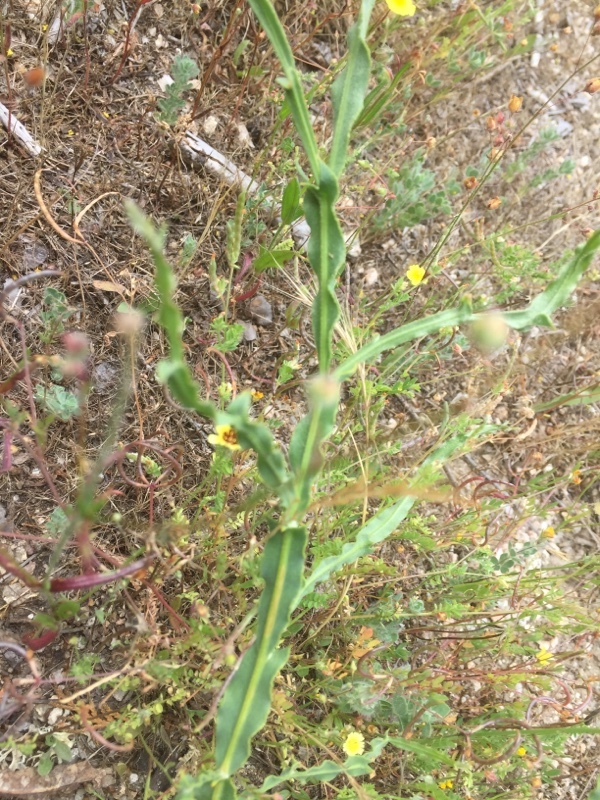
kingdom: Plantae
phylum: Tracheophyta
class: Magnoliopsida
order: Fabales
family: Fabaceae
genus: Genista
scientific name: Genista tridentata
